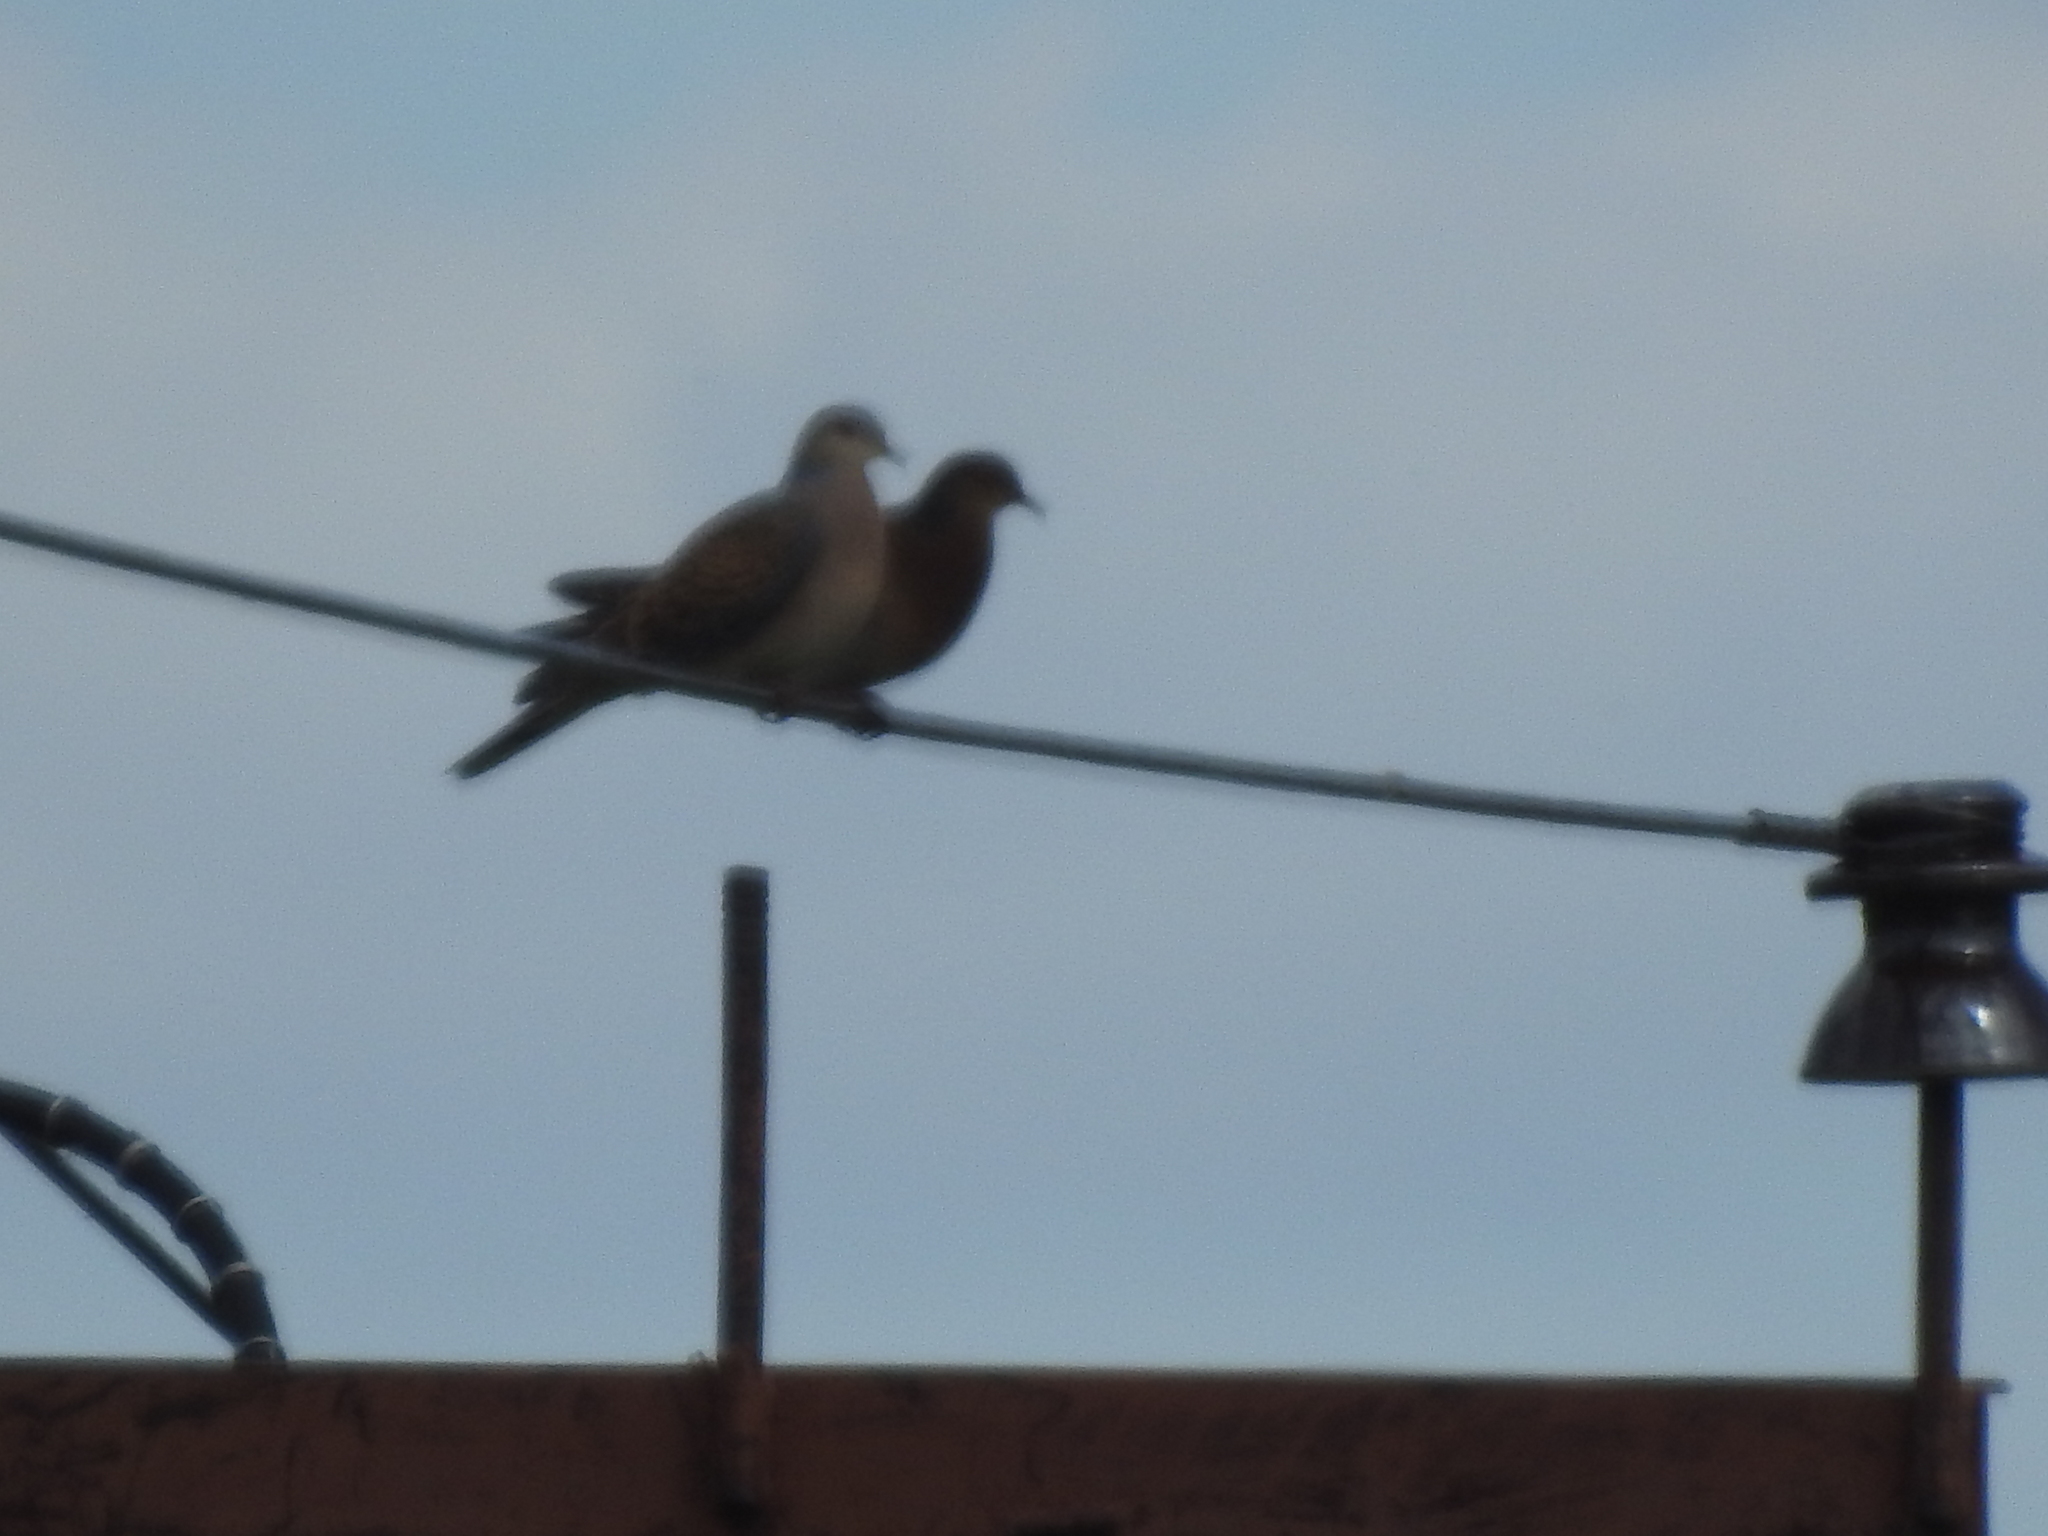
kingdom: Animalia
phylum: Chordata
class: Aves
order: Columbiformes
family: Columbidae
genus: Streptopelia
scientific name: Streptopelia orientalis
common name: Oriental turtle dove
